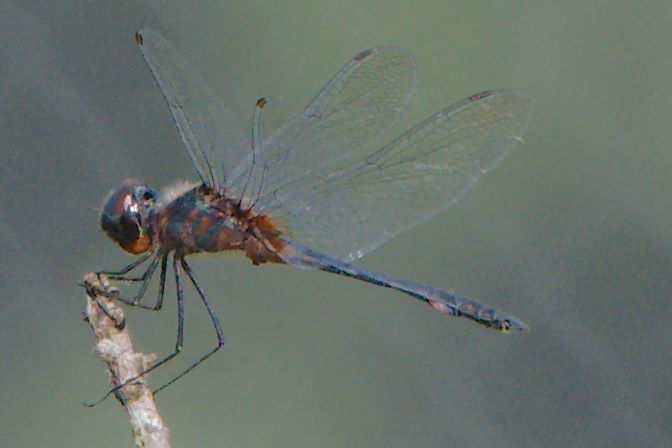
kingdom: Animalia
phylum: Arthropoda
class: Insecta
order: Odonata
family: Libellulidae
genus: Idiataphe
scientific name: Idiataphe cubensis
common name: Metallic pennant
